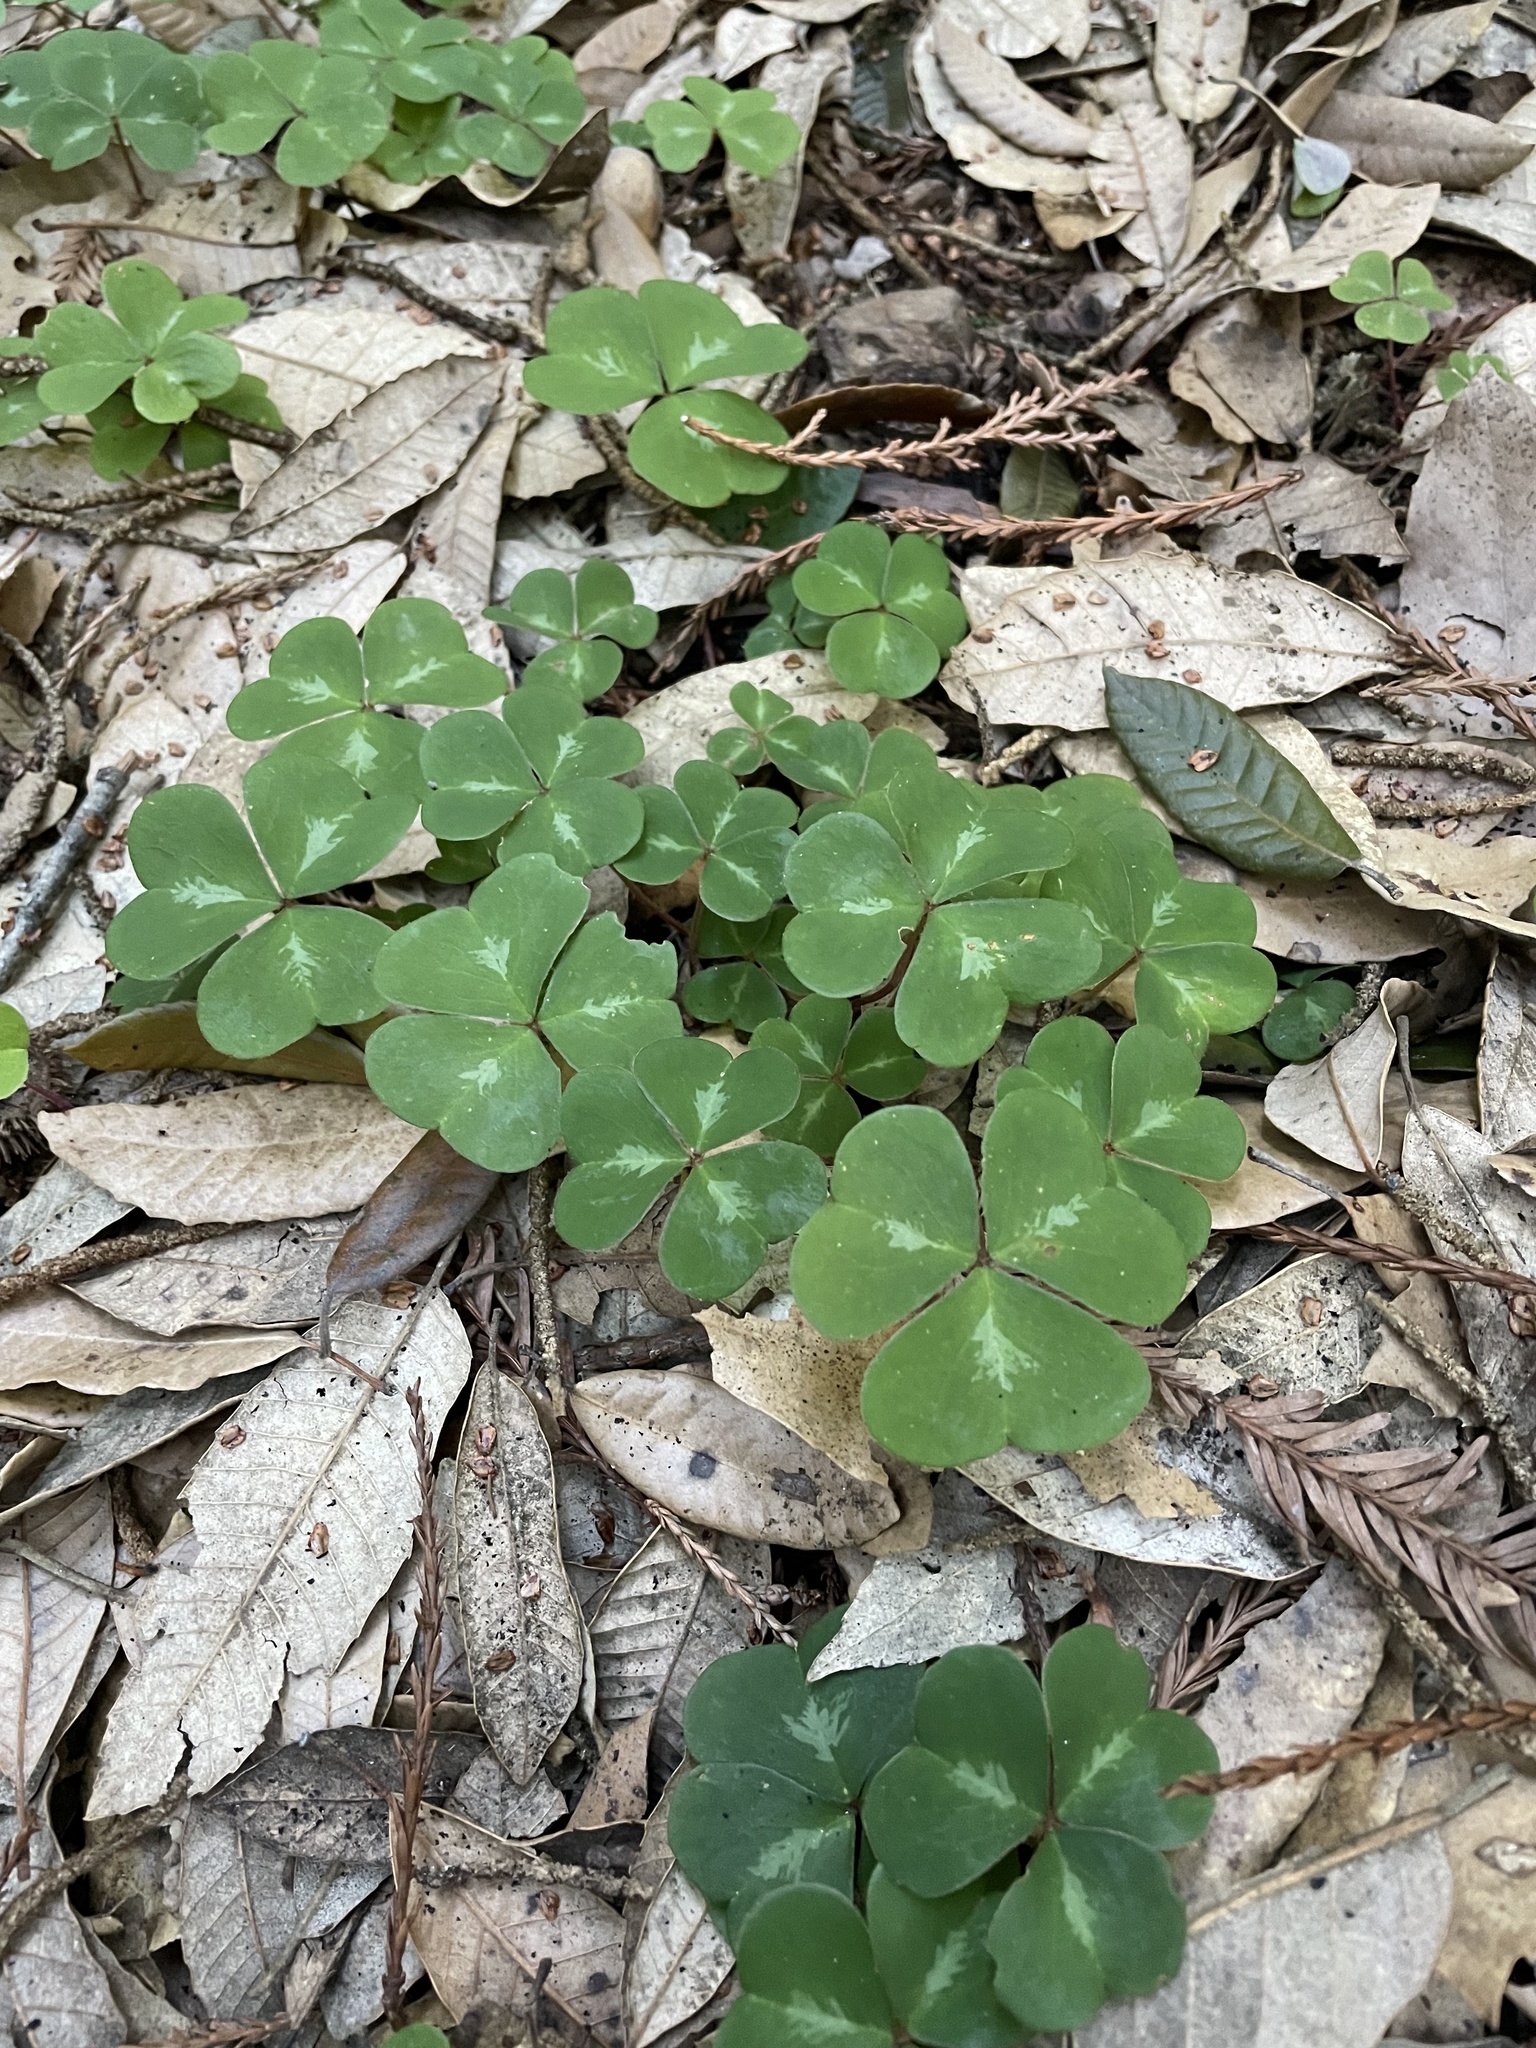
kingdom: Plantae
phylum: Tracheophyta
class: Magnoliopsida
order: Oxalidales
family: Oxalidaceae
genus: Oxalis
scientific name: Oxalis oregana
